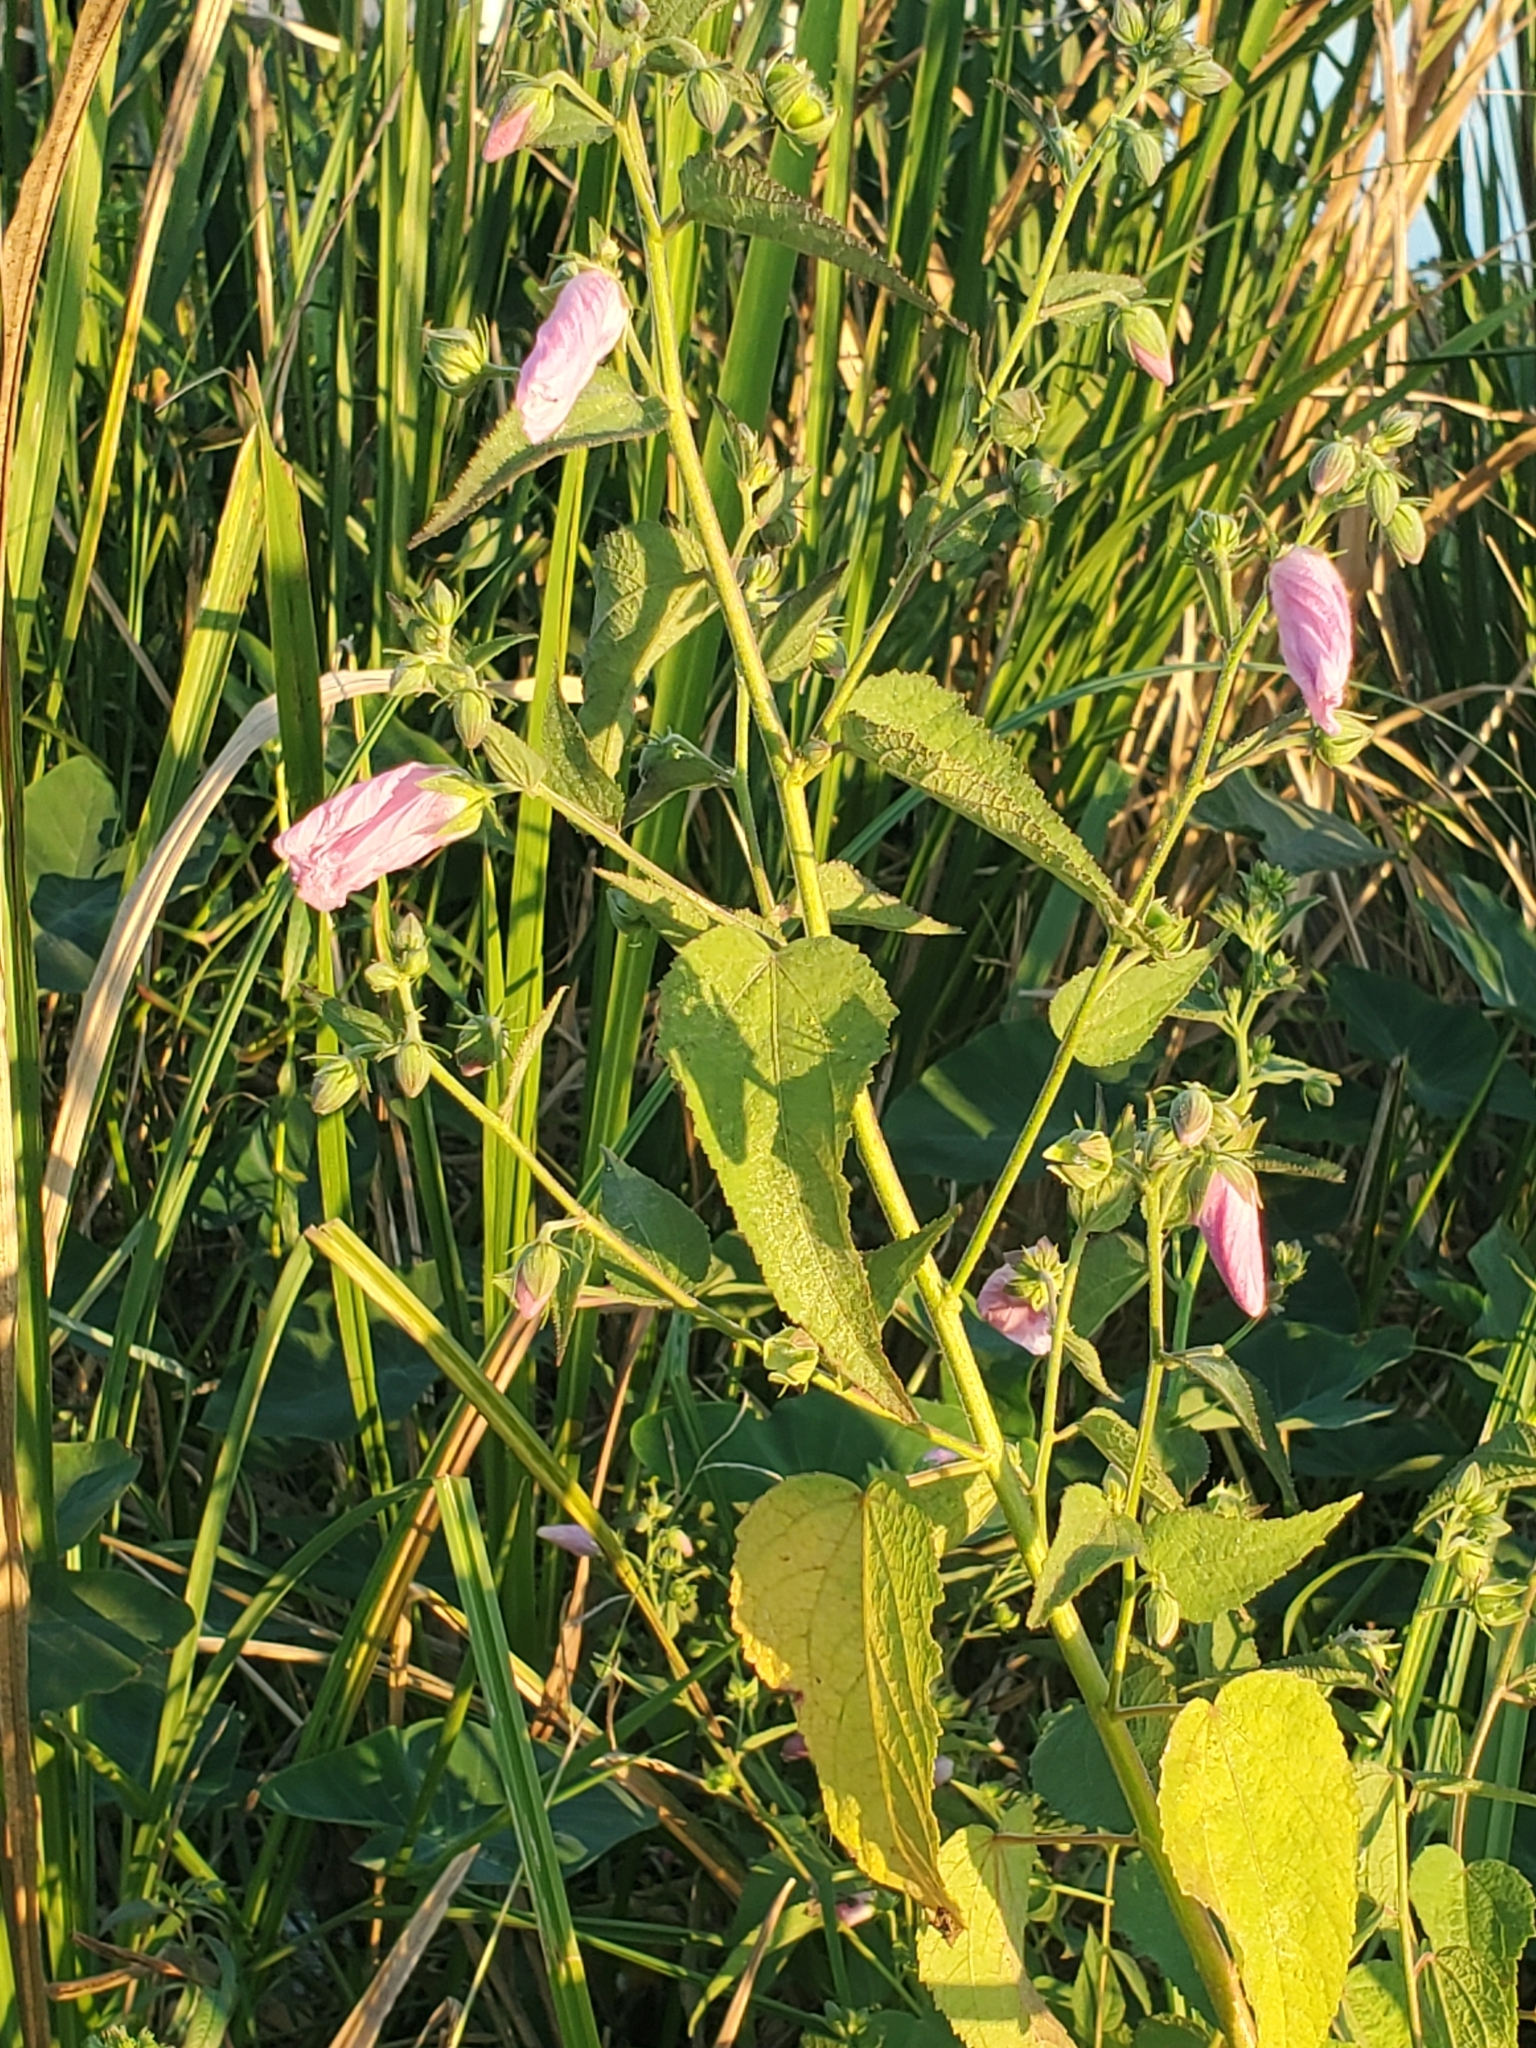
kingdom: Plantae
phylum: Tracheophyta
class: Magnoliopsida
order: Malvales
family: Malvaceae
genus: Kosteletzkya
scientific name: Kosteletzkya pentacarpos
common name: Virginia saltmarsh mallow
